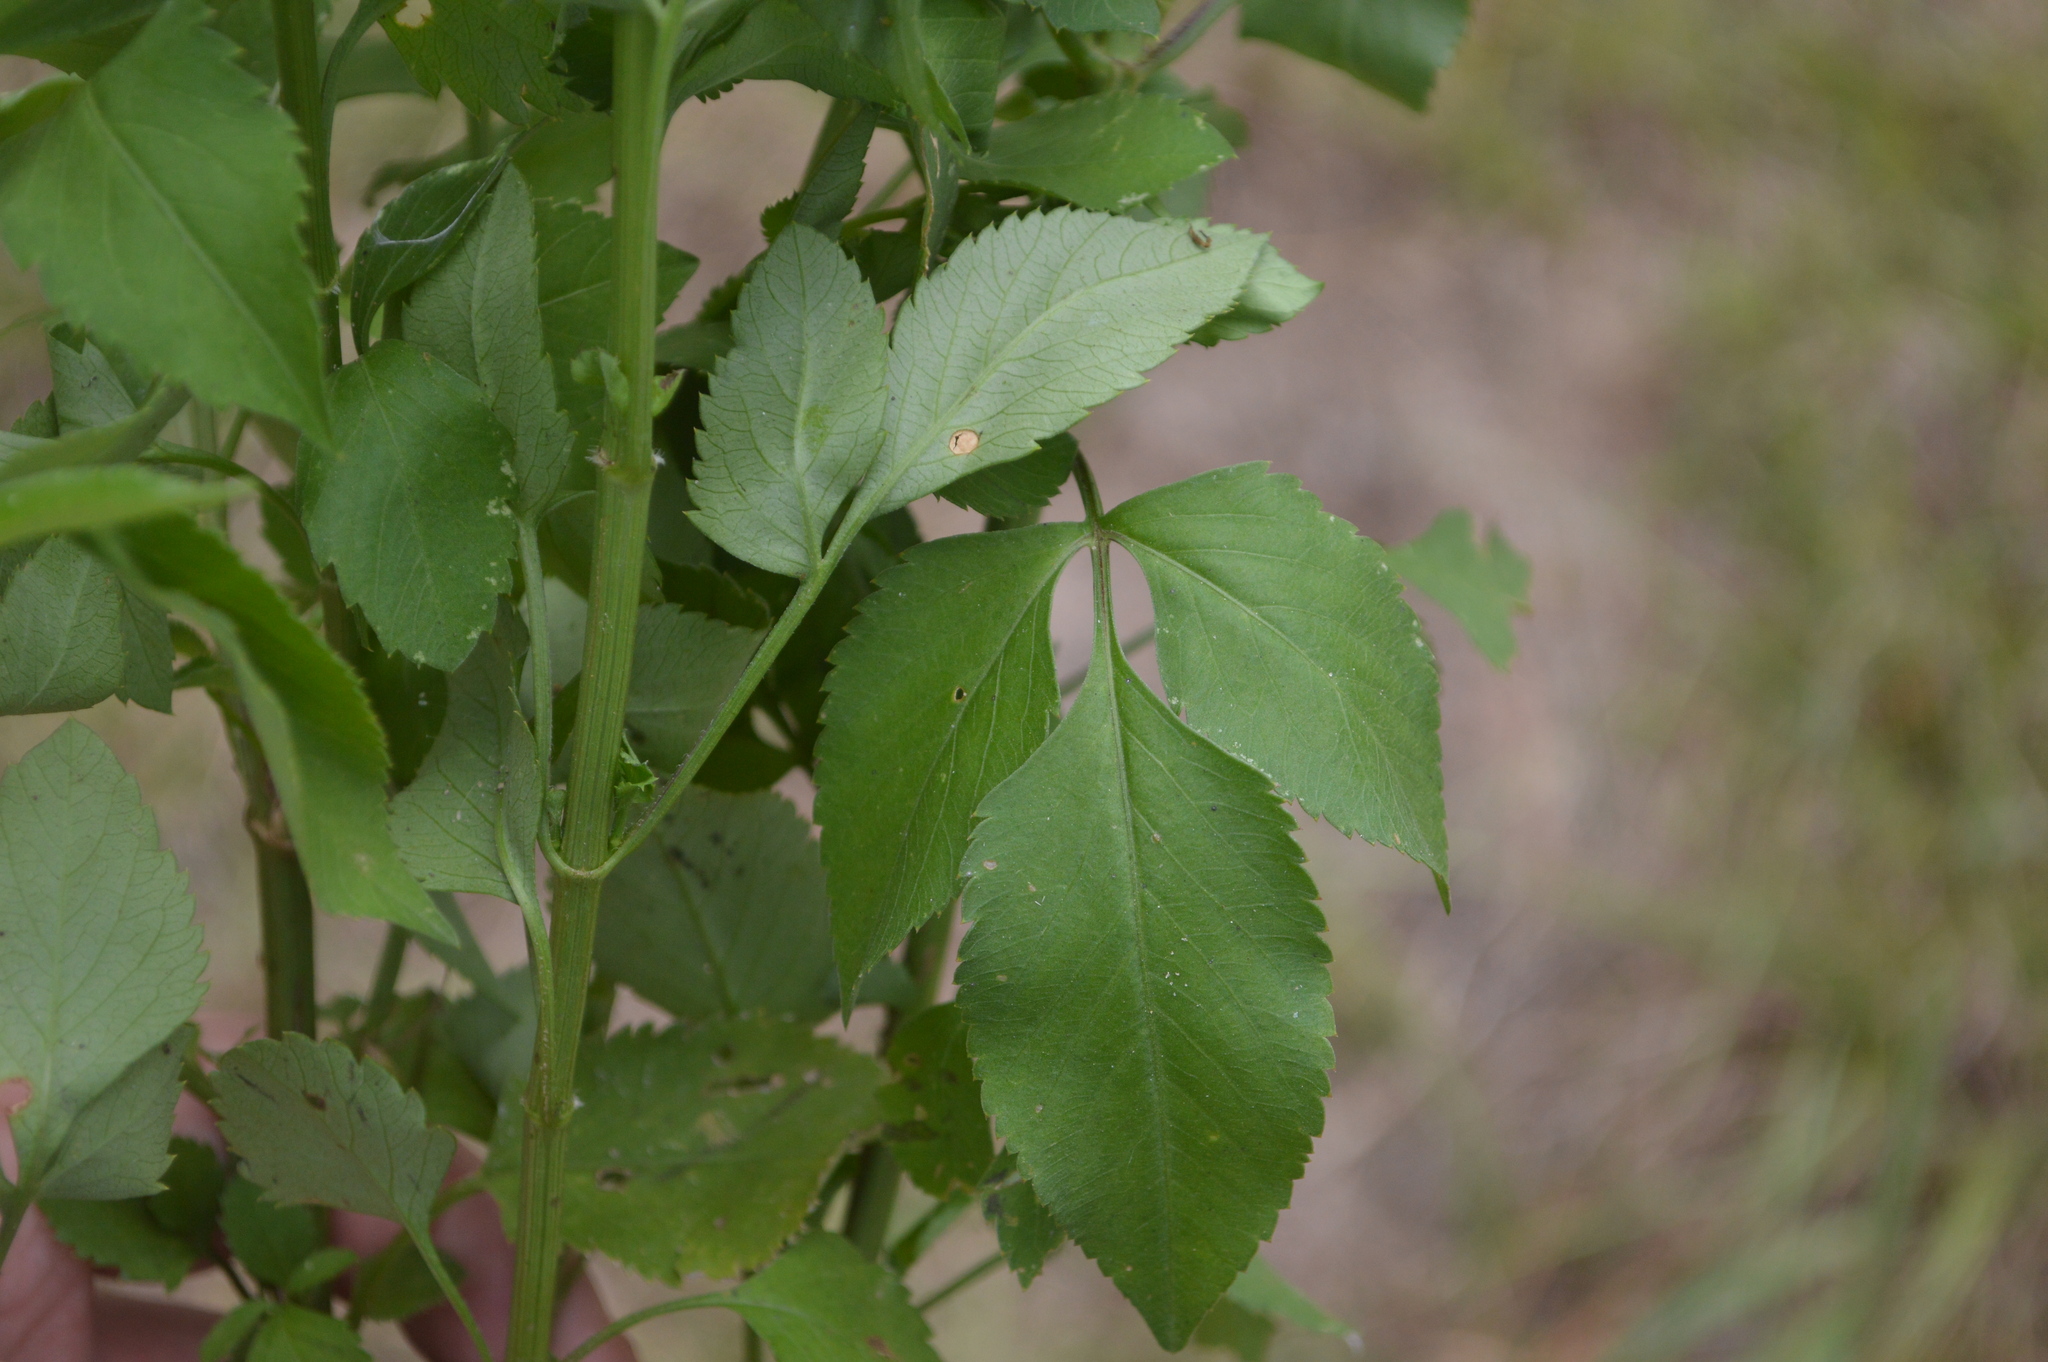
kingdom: Plantae
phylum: Tracheophyta
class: Magnoliopsida
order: Asterales
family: Asteraceae
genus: Bidens
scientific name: Bidens alba
